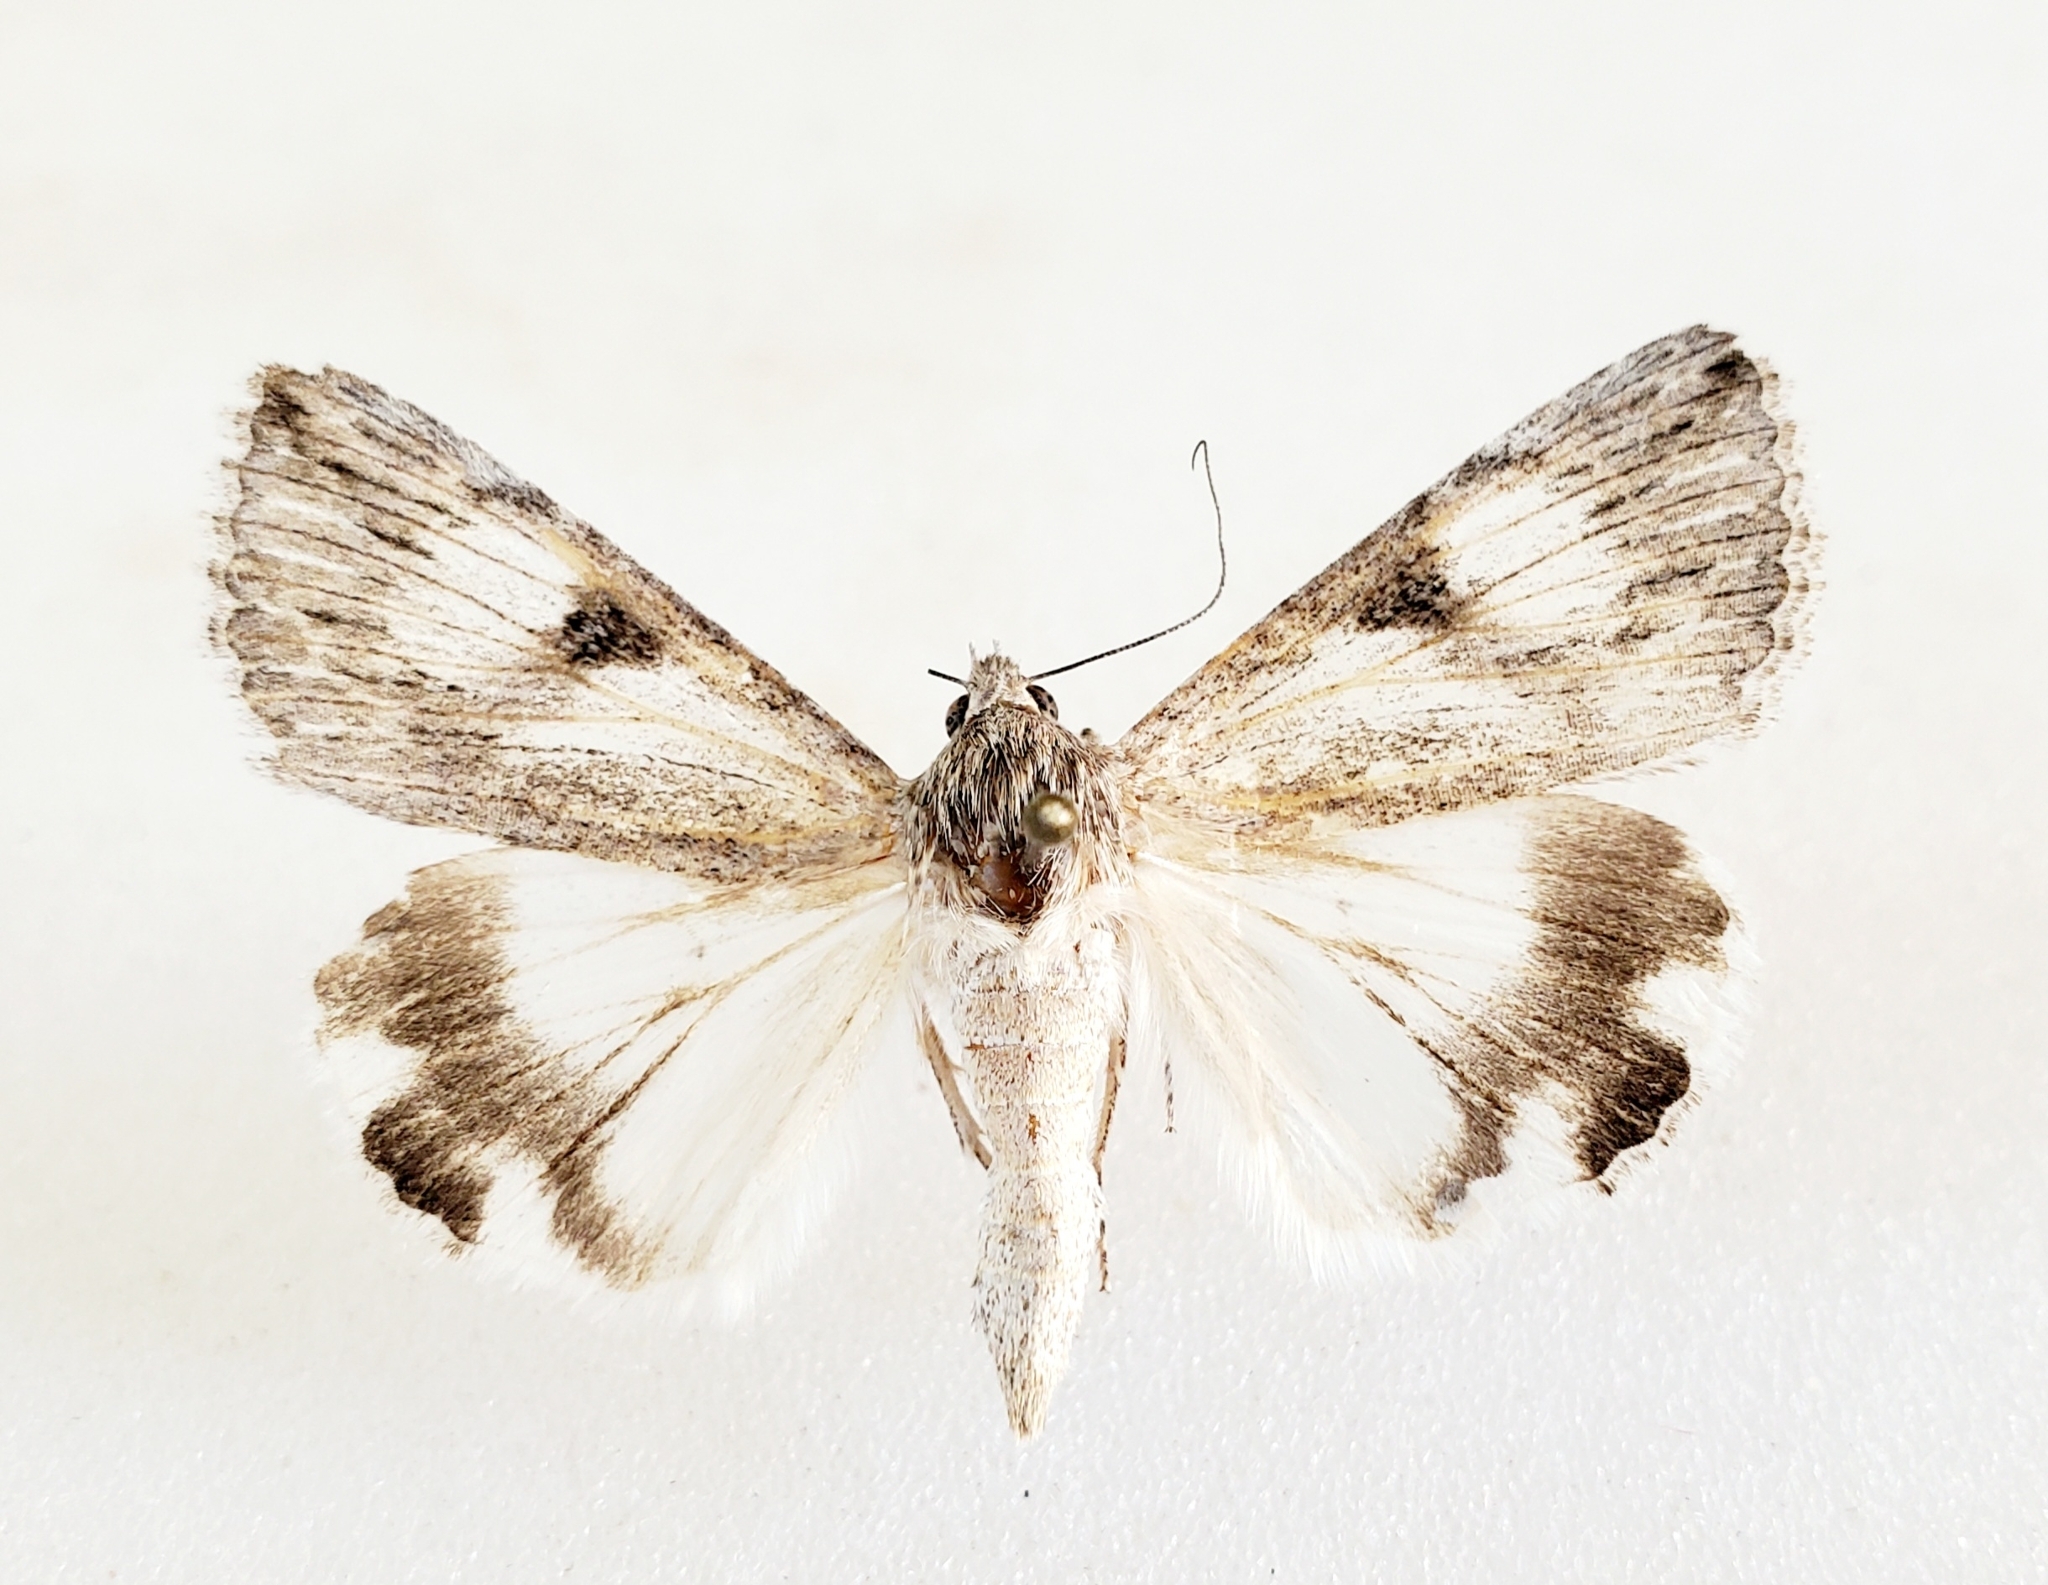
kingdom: Animalia
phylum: Arthropoda
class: Insecta
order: Lepidoptera
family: Erebidae
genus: Melipotis
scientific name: Melipotis jucunda
